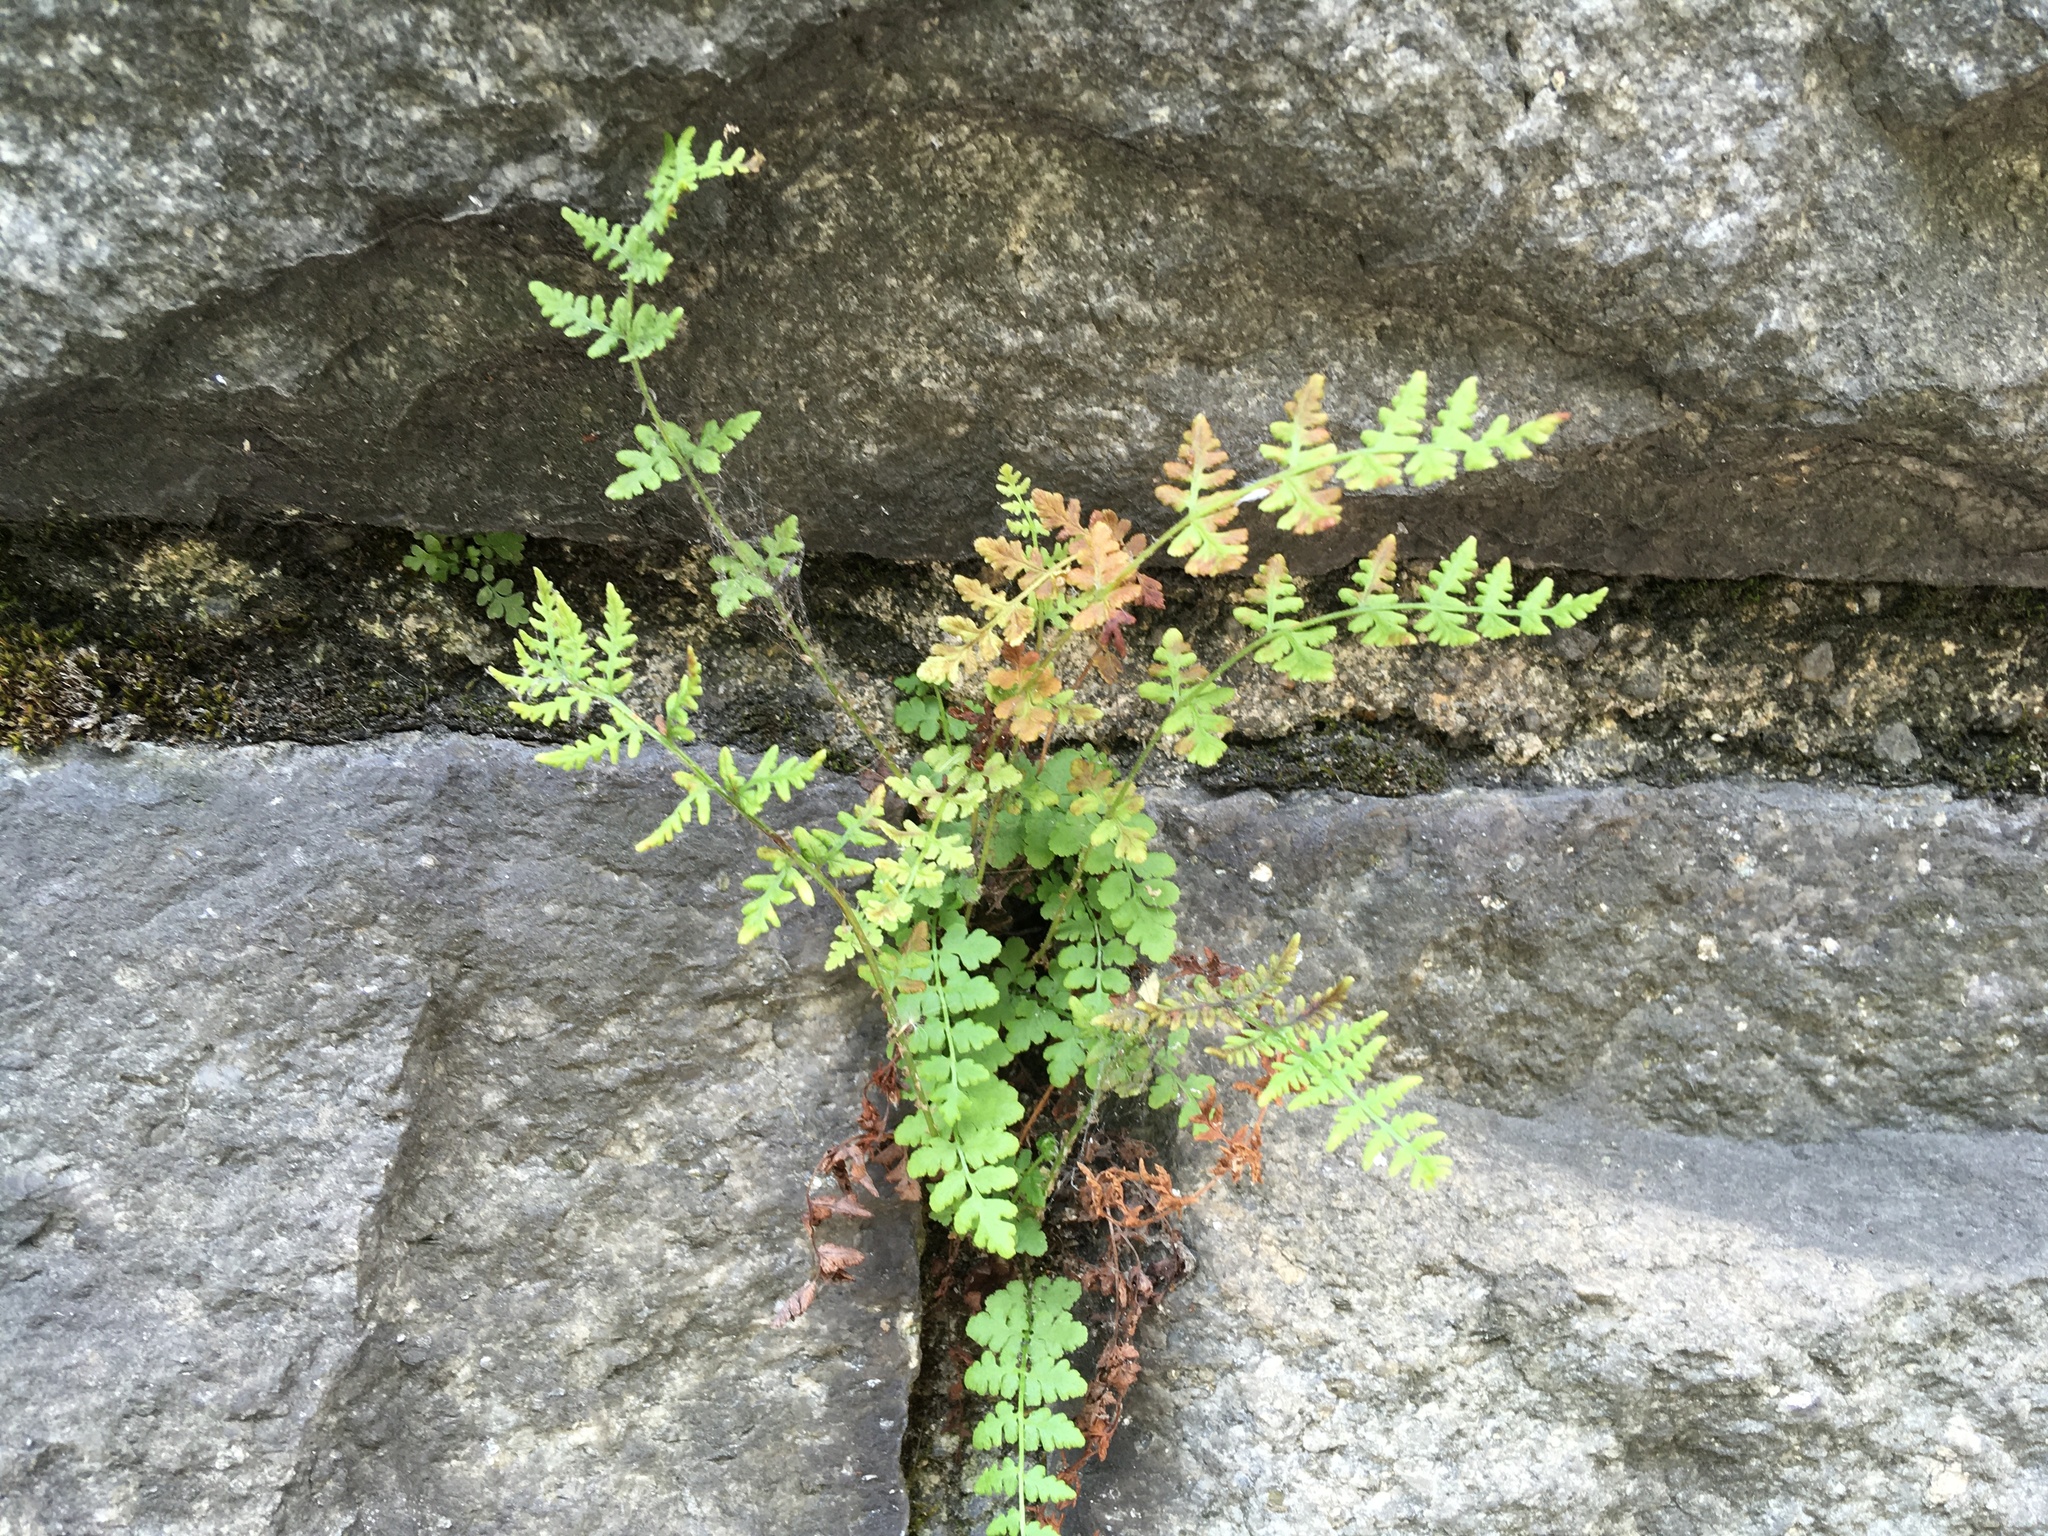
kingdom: Plantae
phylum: Tracheophyta
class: Polypodiopsida
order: Polypodiales
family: Woodsiaceae
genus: Physematium
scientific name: Physematium obtusum
